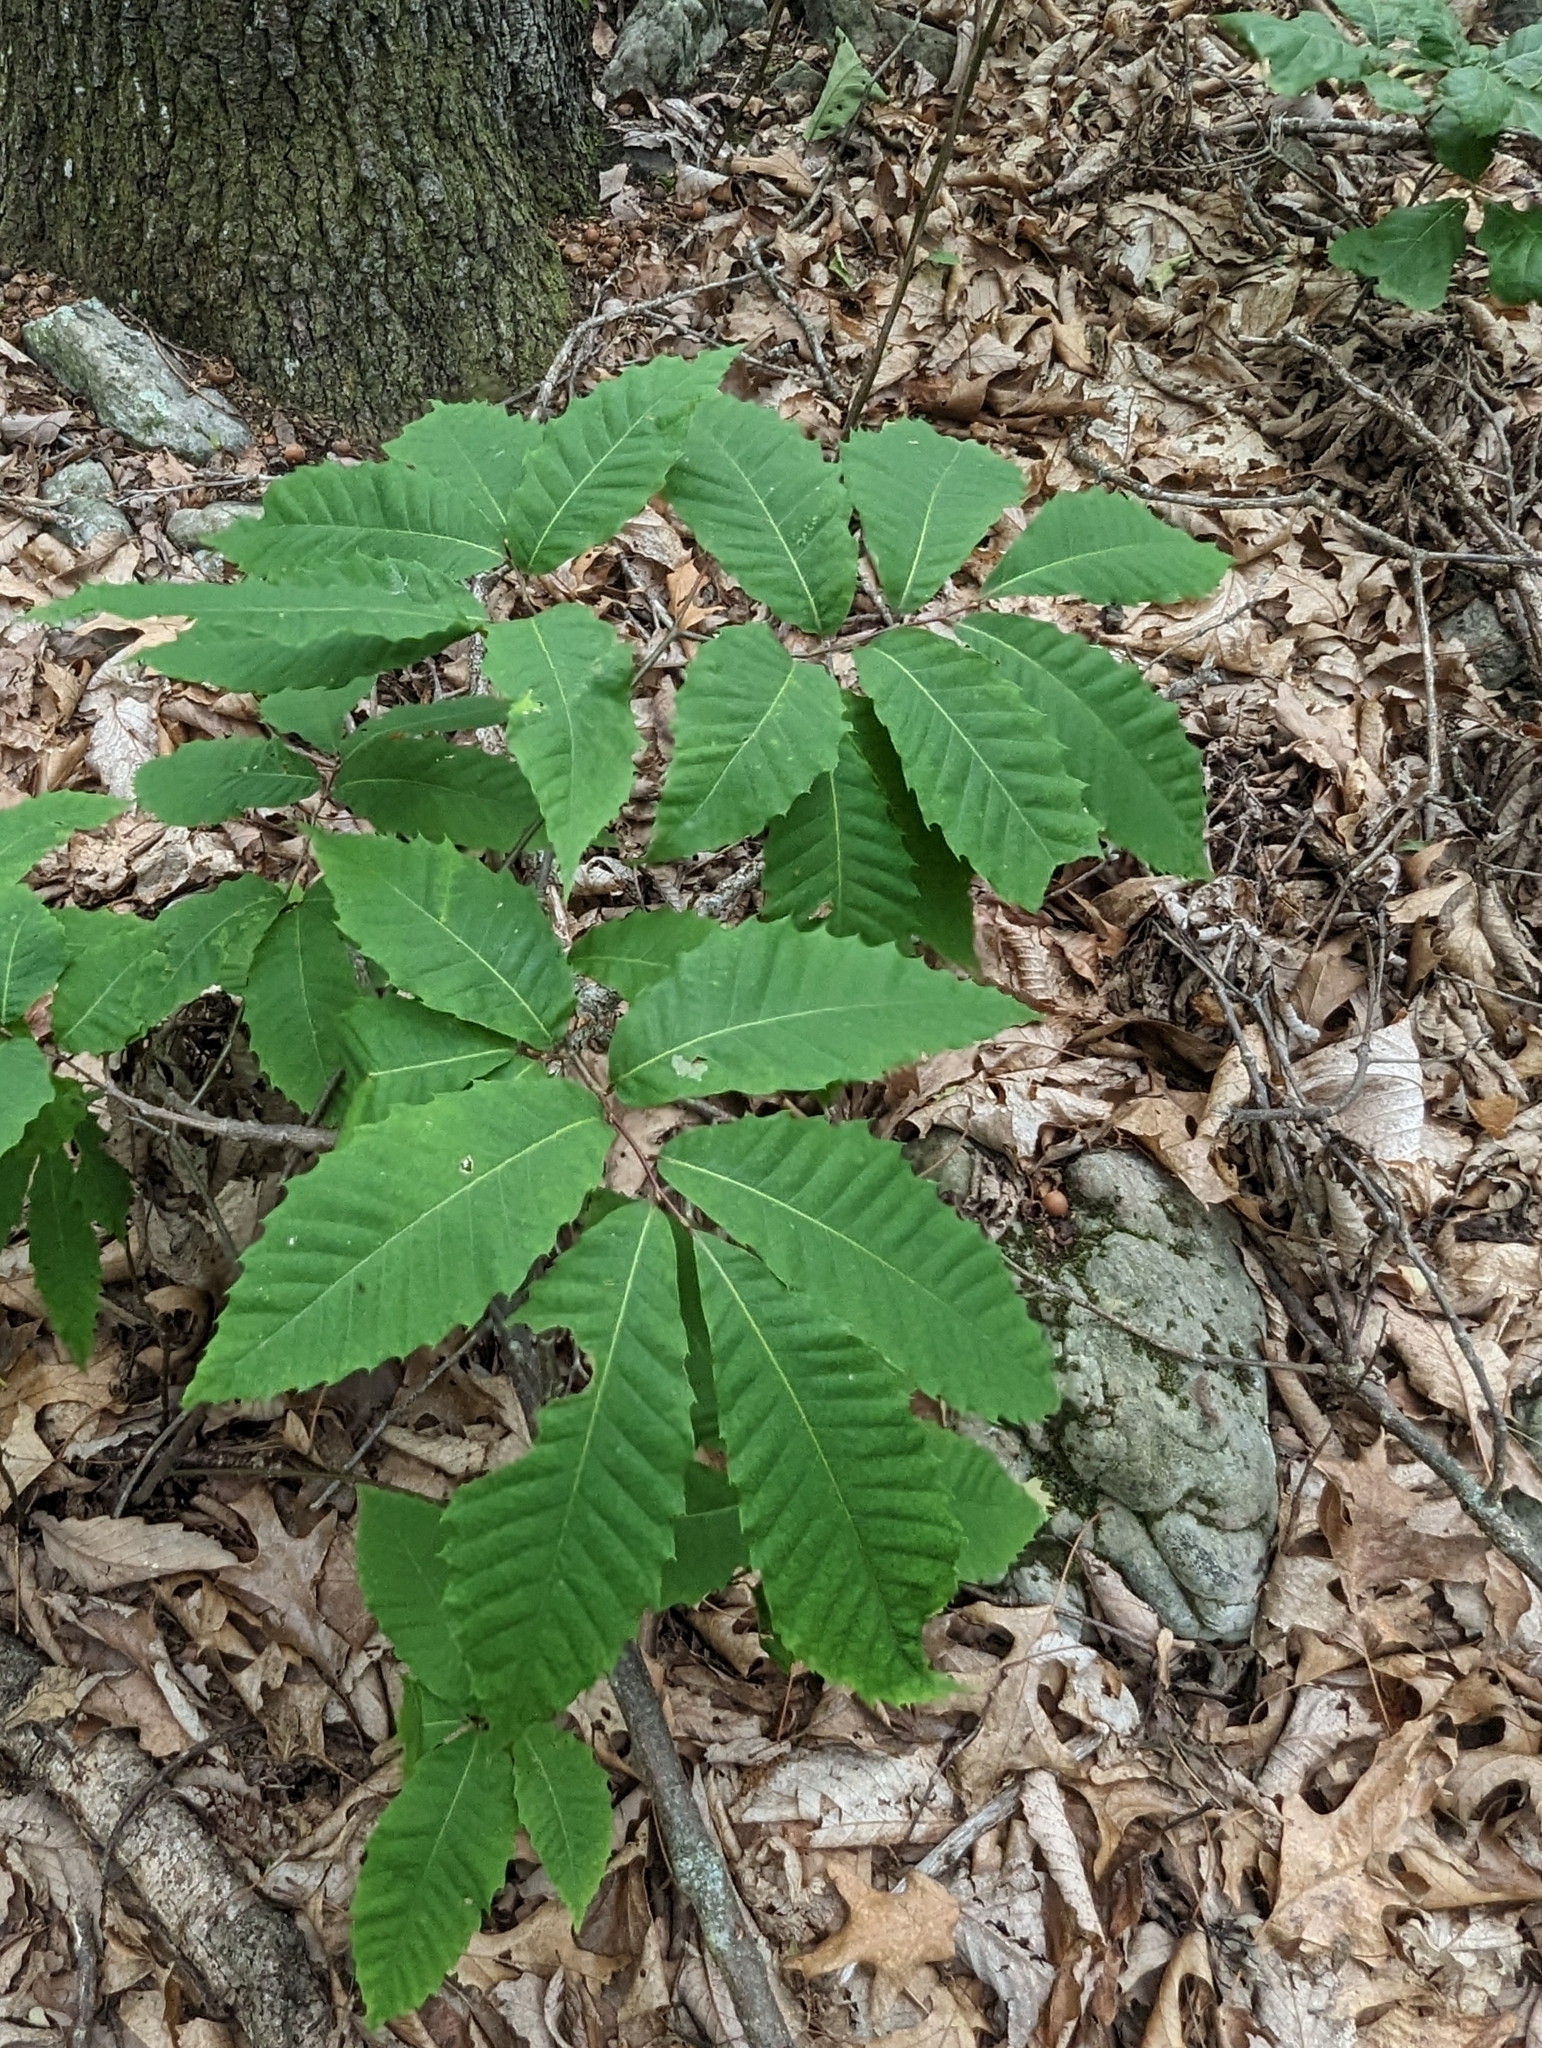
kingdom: Plantae
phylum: Tracheophyta
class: Magnoliopsida
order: Fagales
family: Fagaceae
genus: Castanea
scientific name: Castanea dentata
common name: American chestnut
